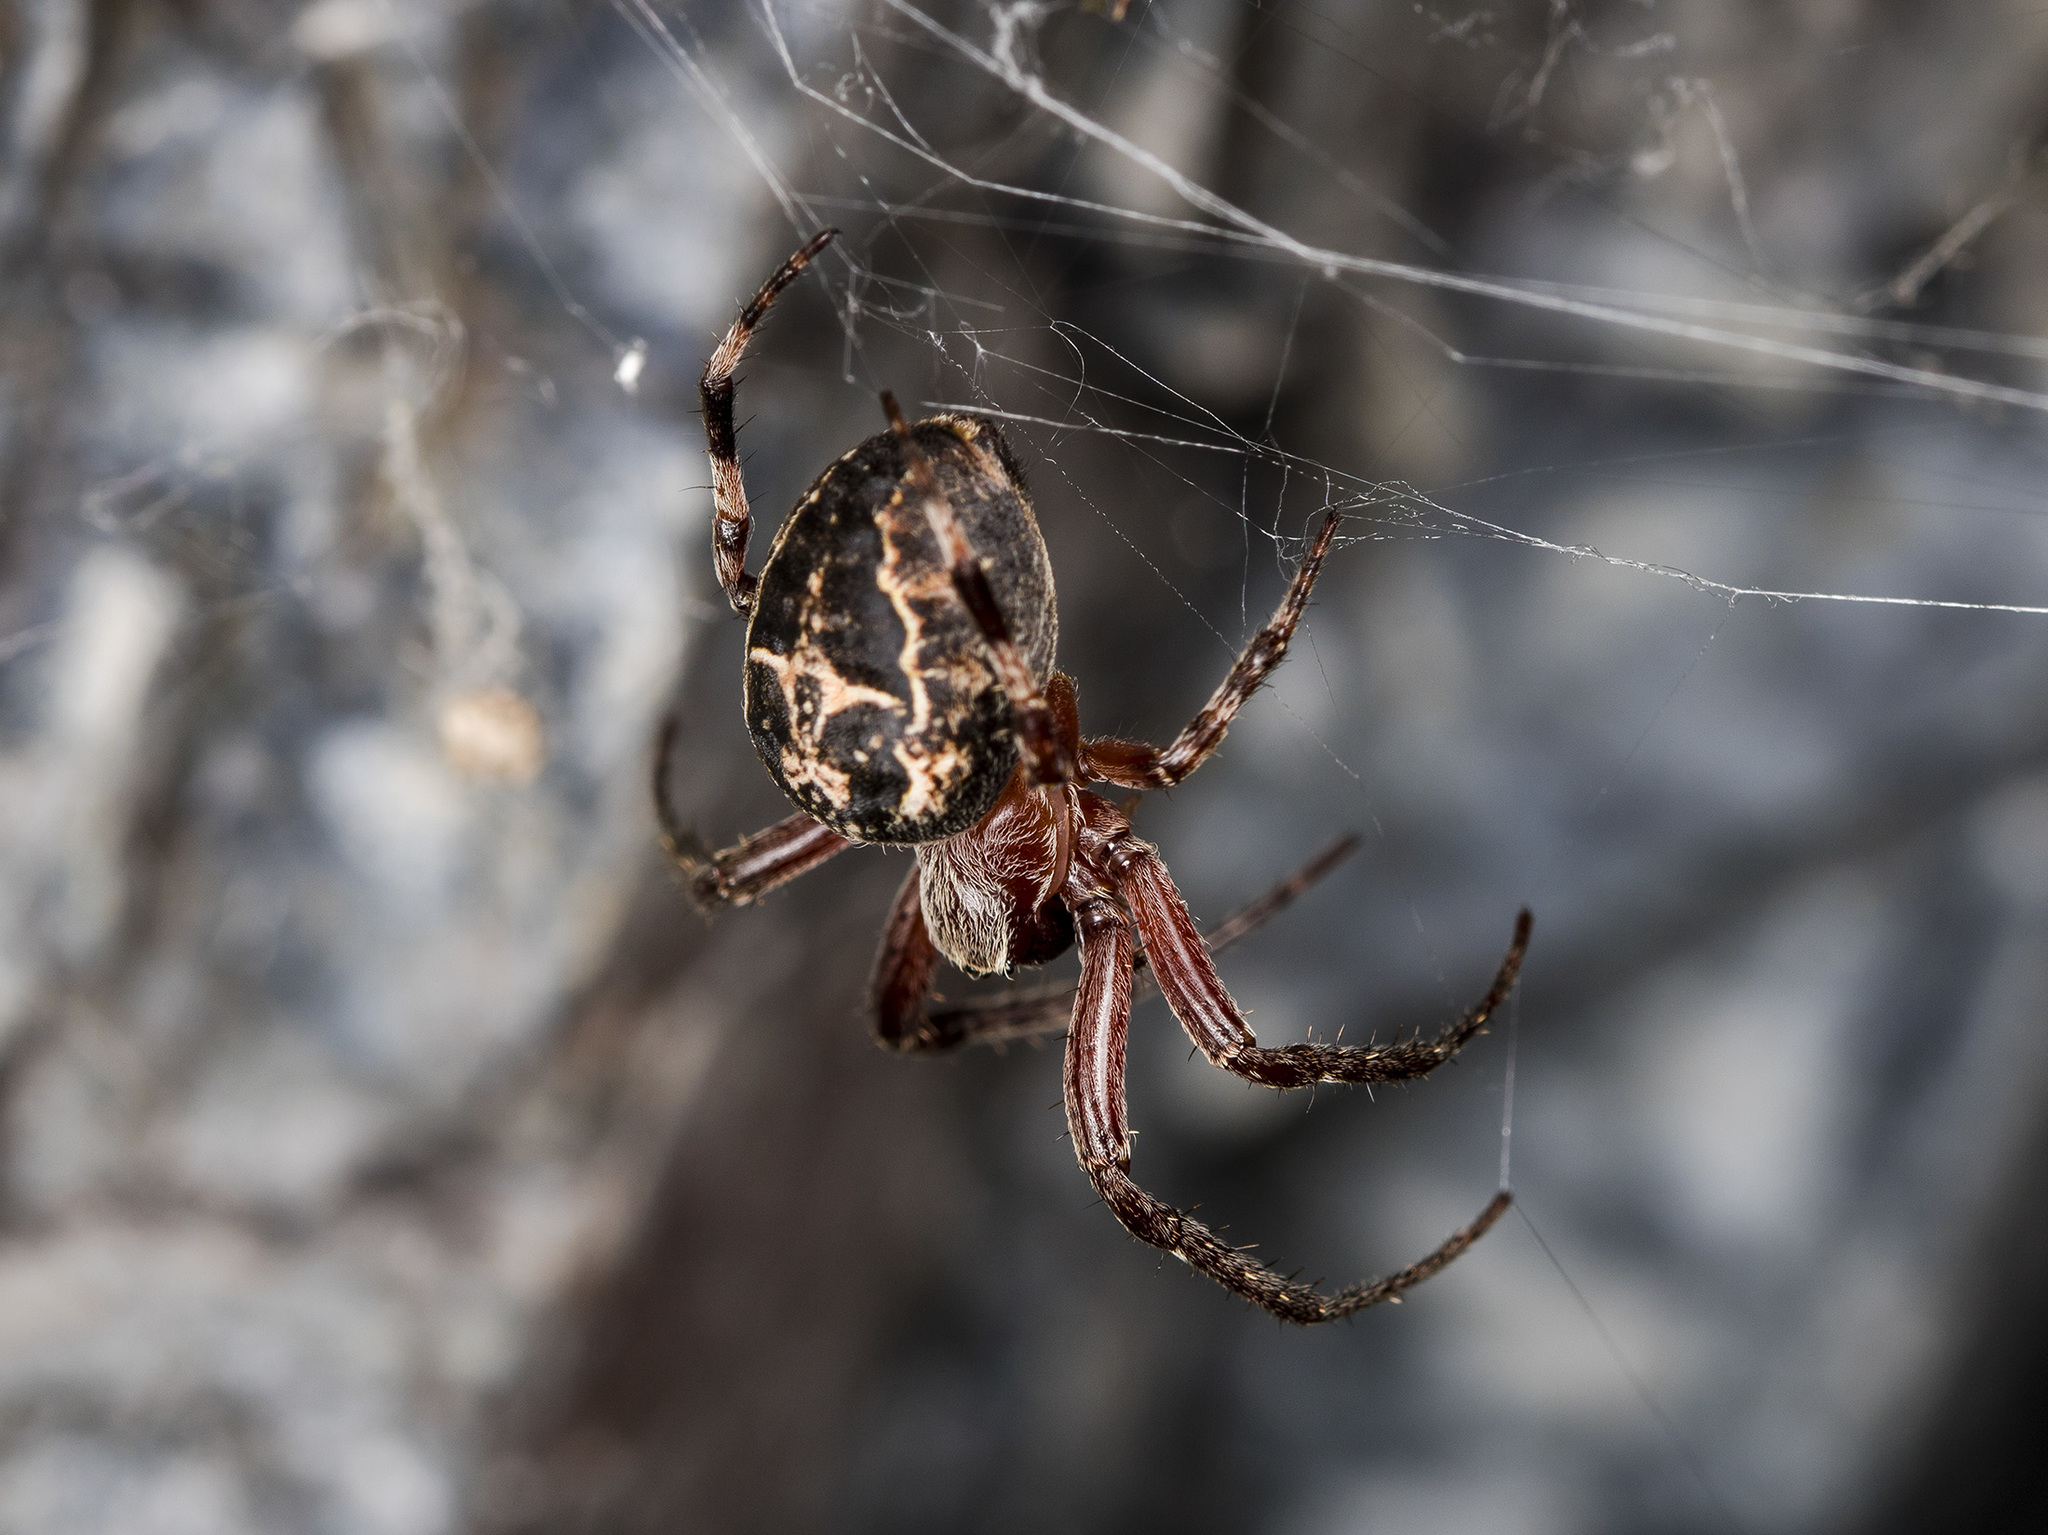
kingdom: Animalia
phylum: Arthropoda
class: Arachnida
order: Araneae
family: Araneidae
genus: Larinioides
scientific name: Larinioides patagiatus
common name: Ornamental orbweaver
